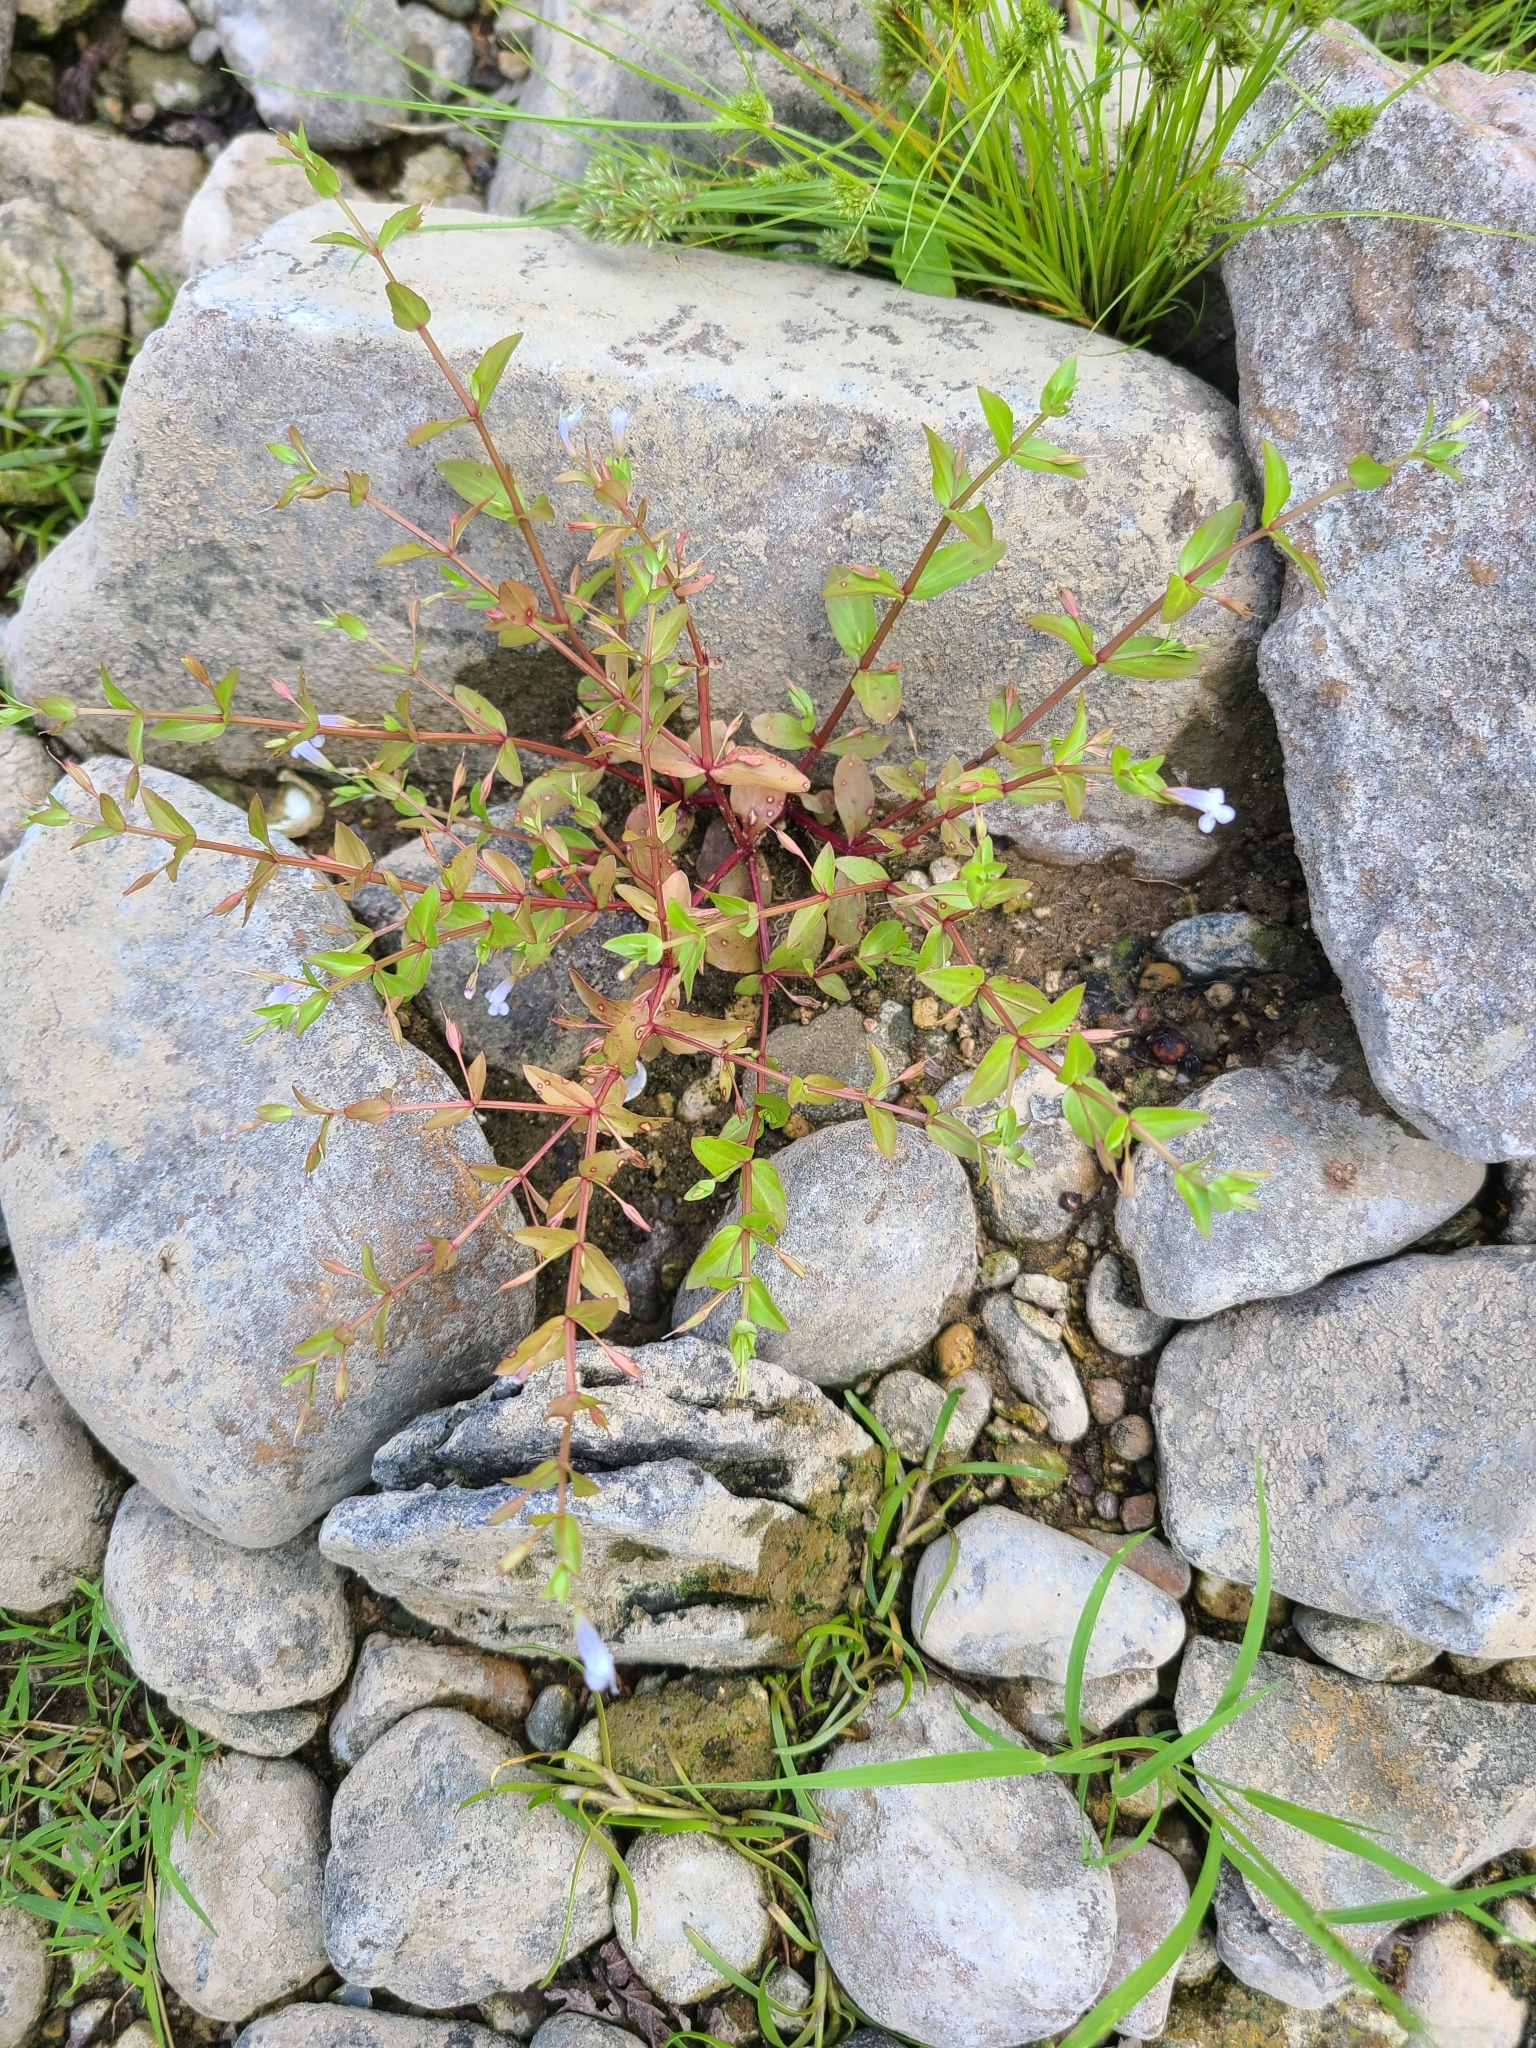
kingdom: Plantae
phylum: Tracheophyta
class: Magnoliopsida
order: Lamiales
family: Linderniaceae
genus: Lindernia
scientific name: Lindernia dubia
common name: Annual false pimpernel
